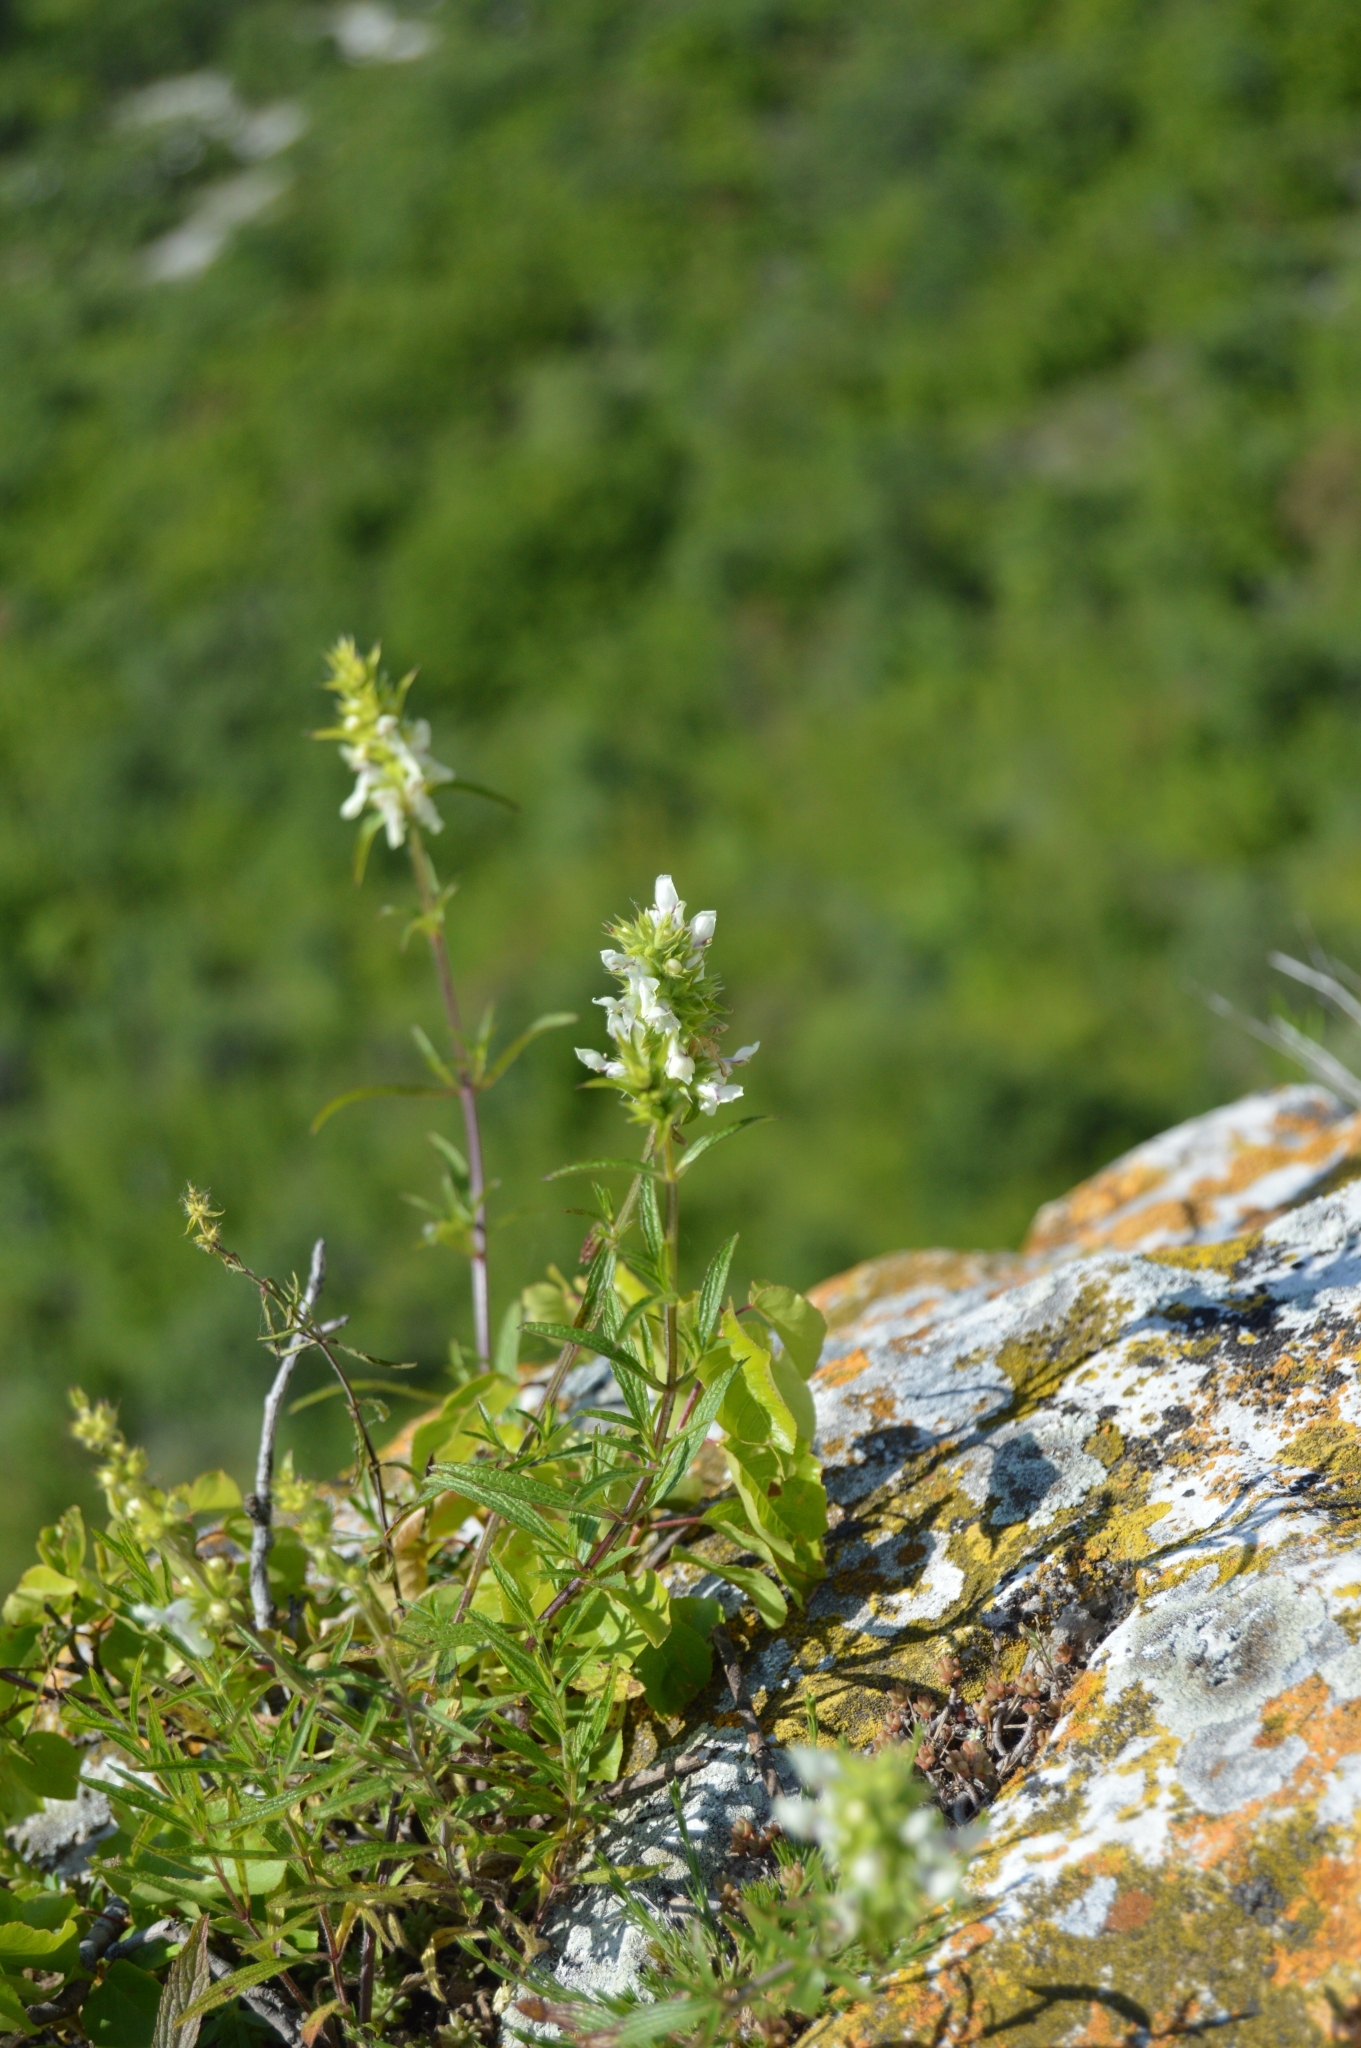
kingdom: Plantae
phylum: Tracheophyta
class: Magnoliopsida
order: Lamiales
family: Lamiaceae
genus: Stachys
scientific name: Stachys atherocalyx
